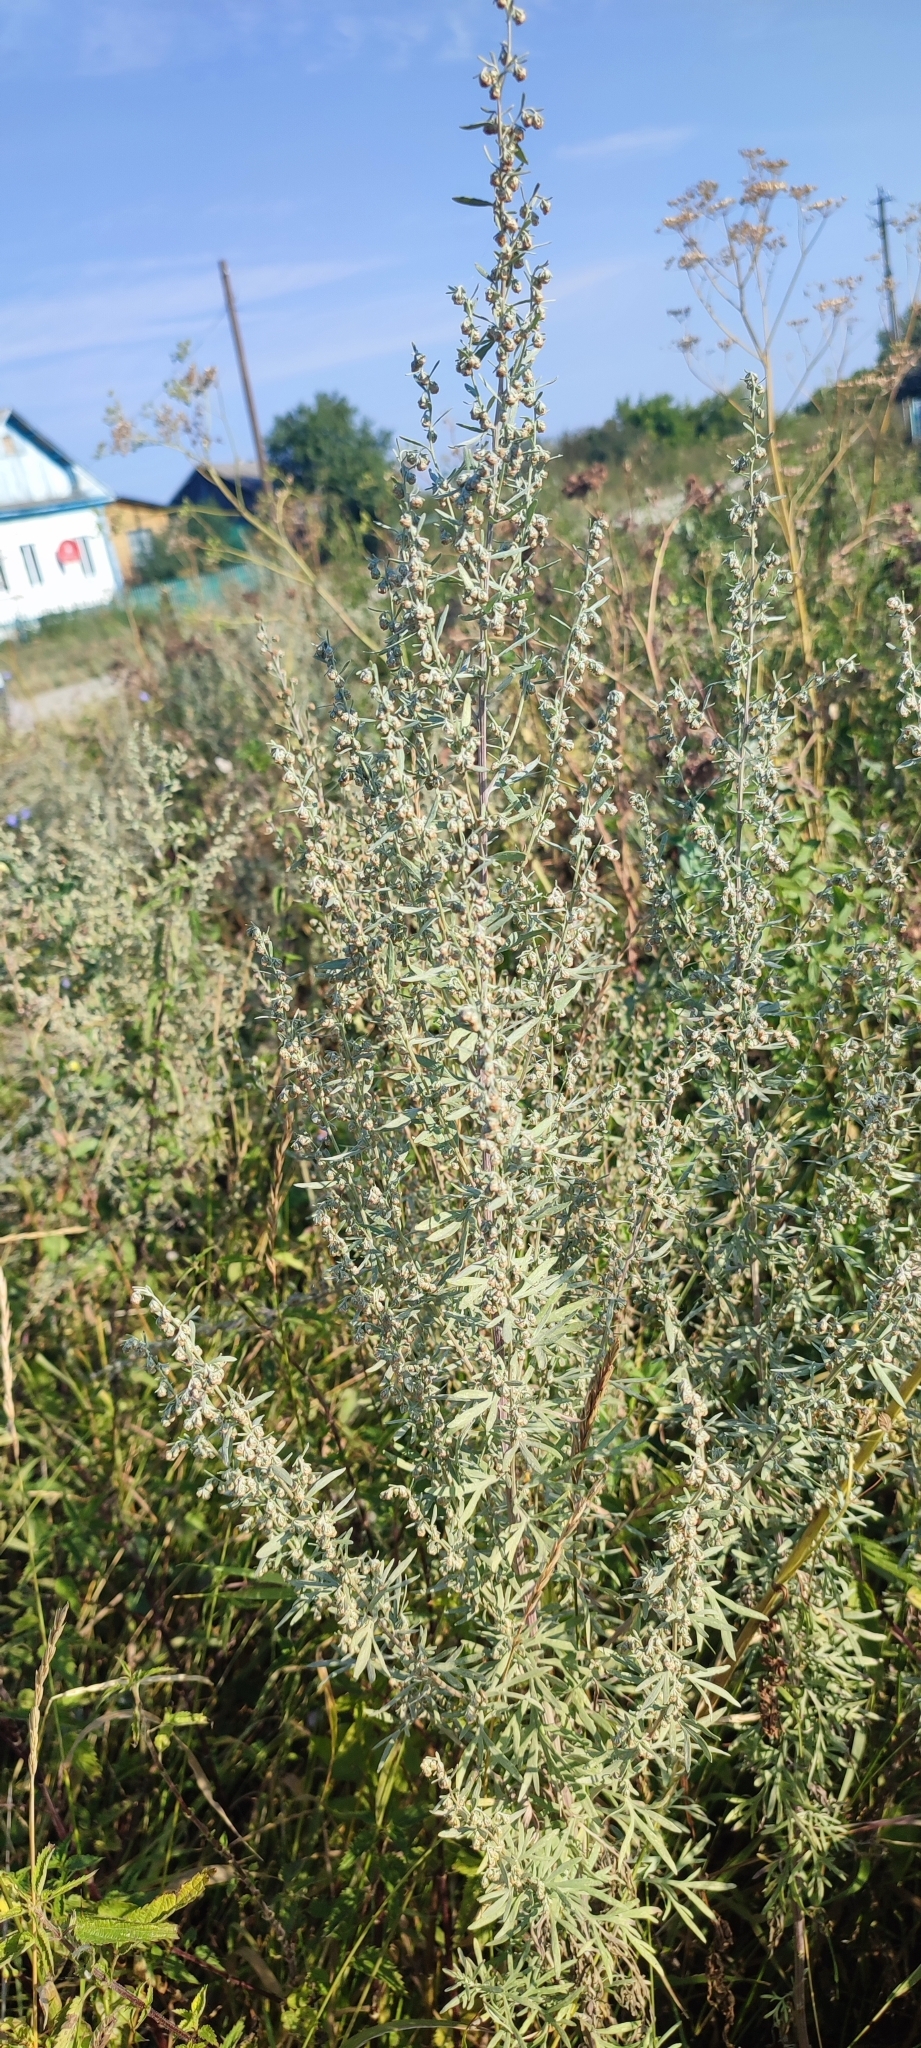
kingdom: Plantae
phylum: Tracheophyta
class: Magnoliopsida
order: Asterales
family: Asteraceae
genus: Artemisia
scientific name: Artemisia sieversiana
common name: Sieversian wormwood
